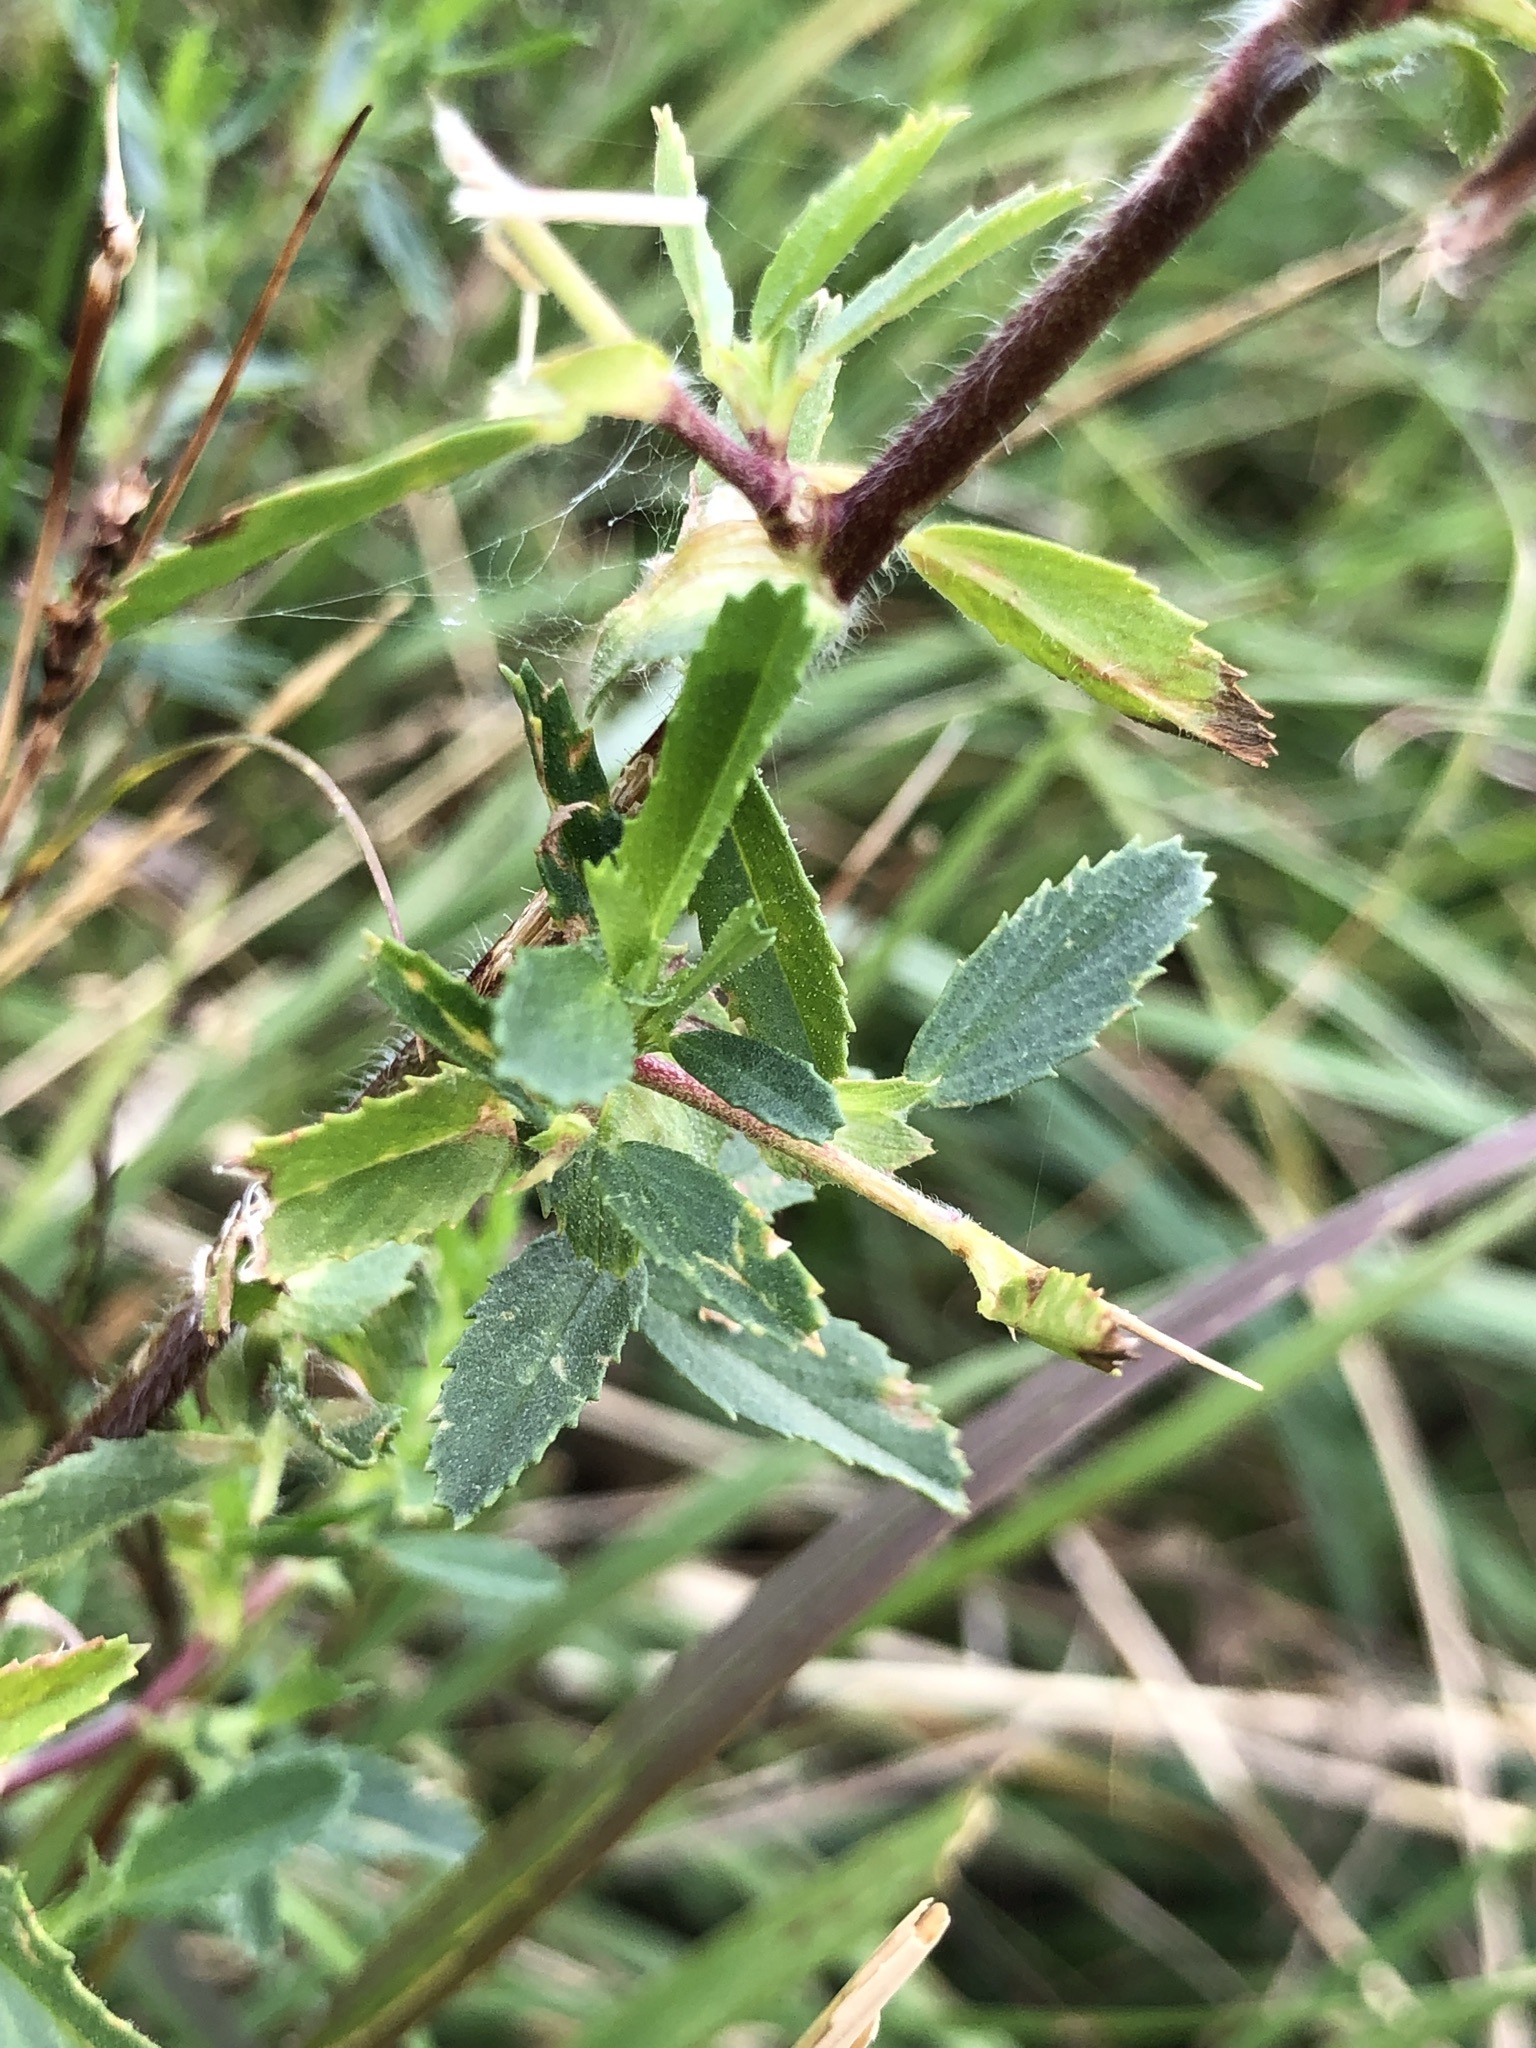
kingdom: Plantae
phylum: Tracheophyta
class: Magnoliopsida
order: Fabales
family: Fabaceae
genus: Ononis
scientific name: Ononis spinosa
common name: Spiny restharrow
